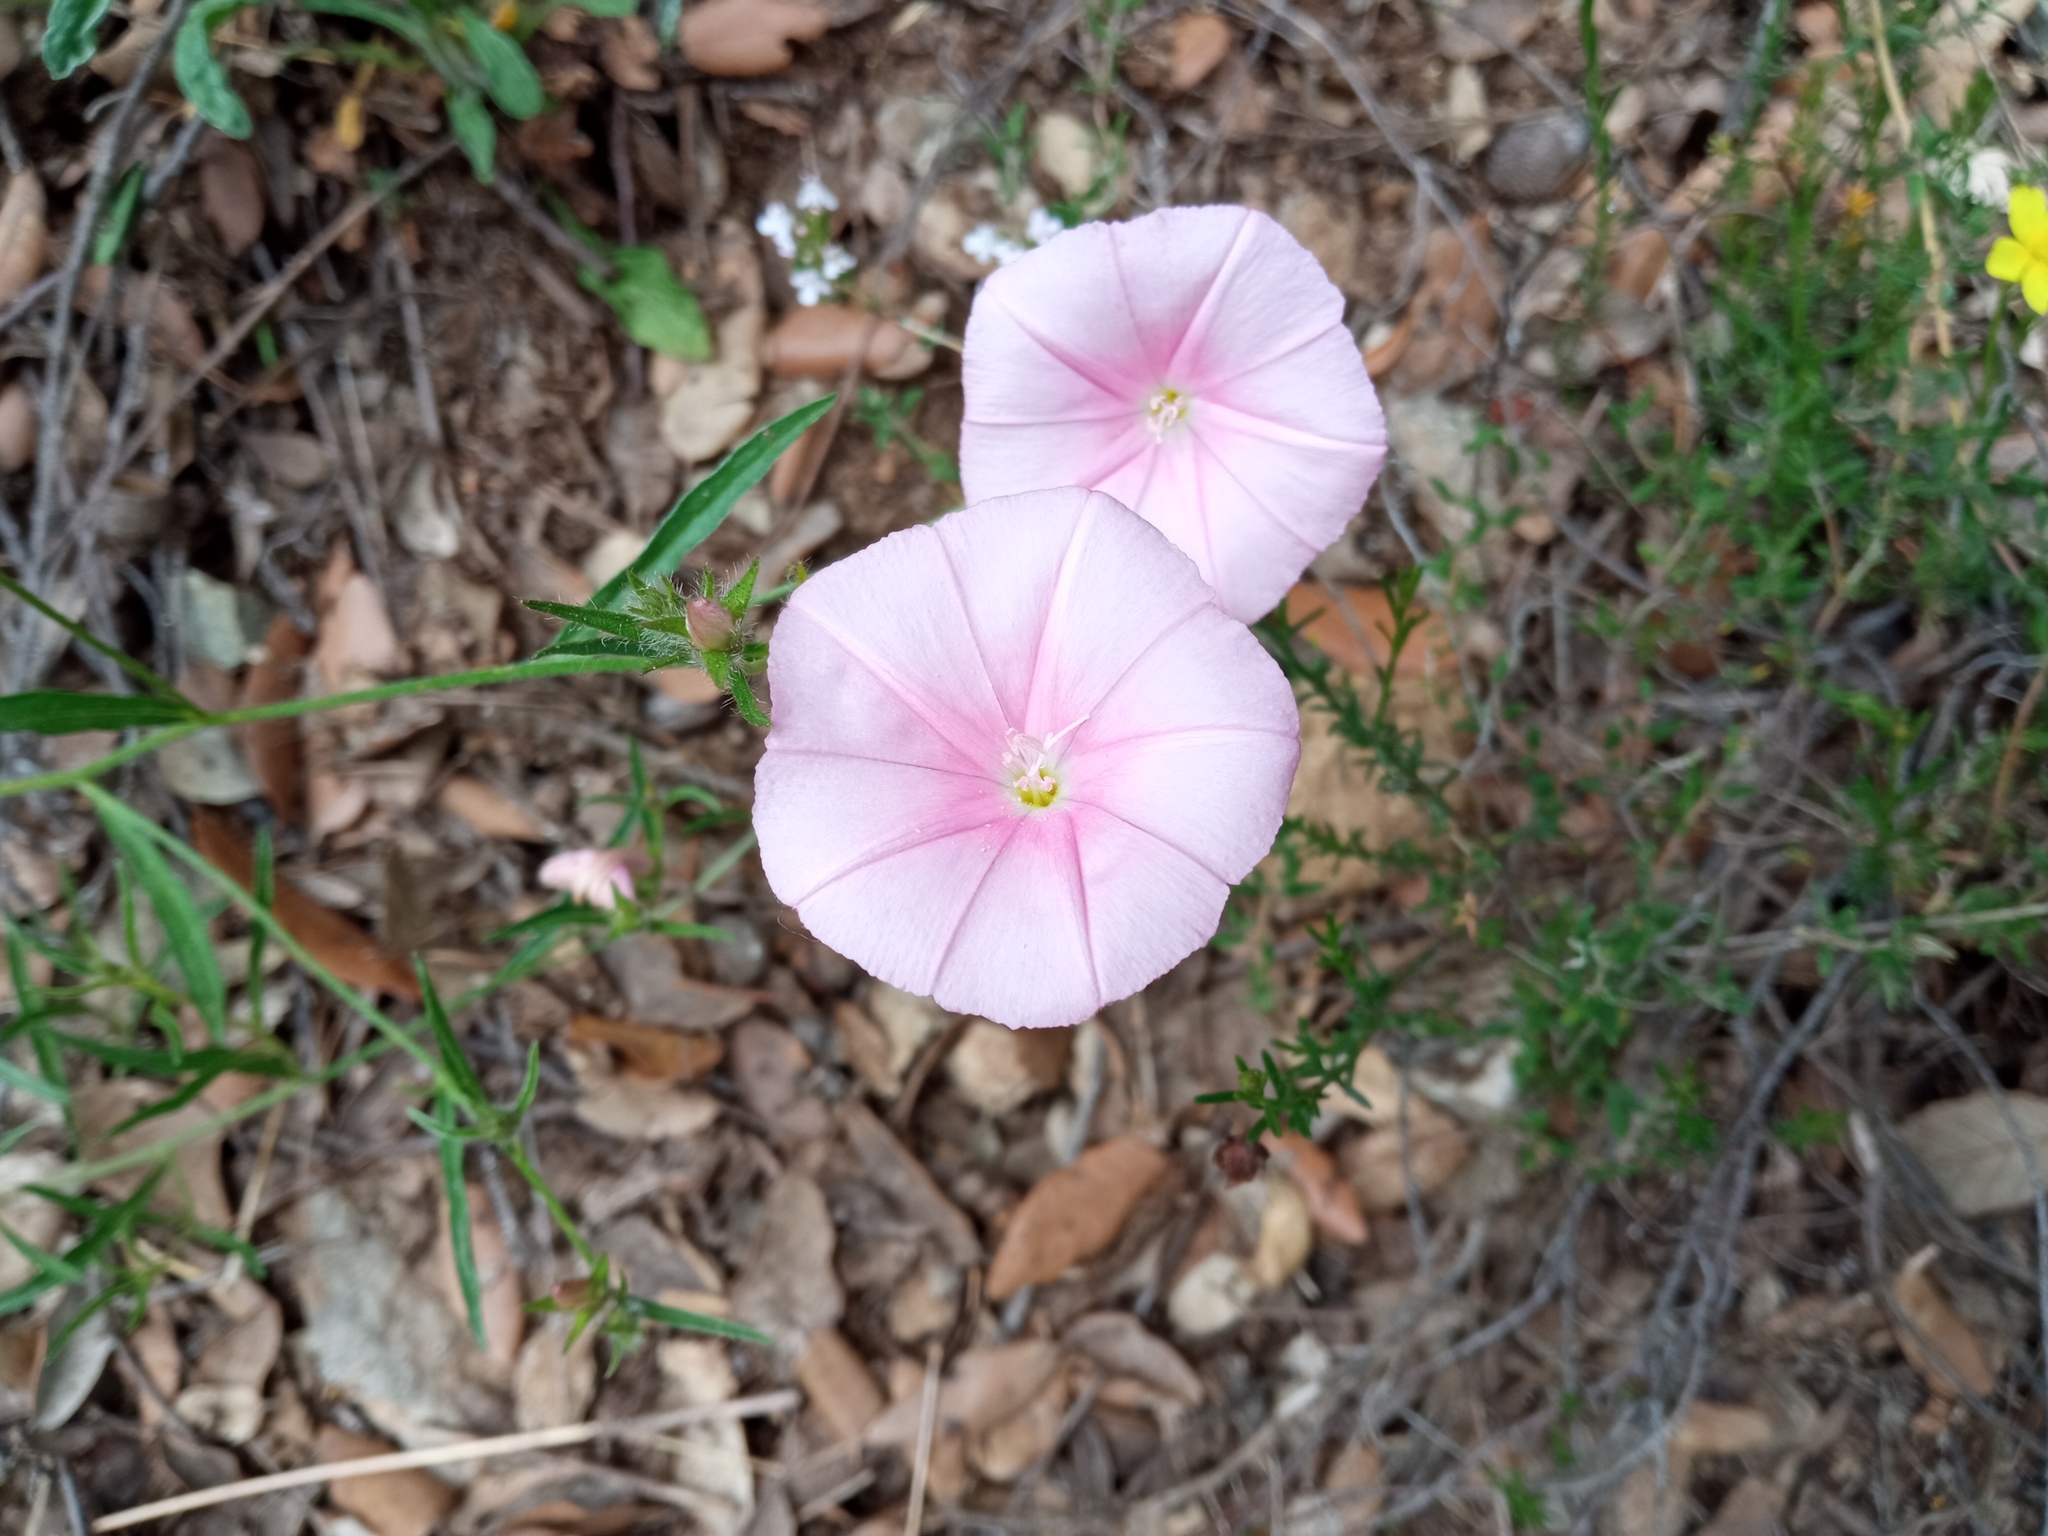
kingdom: Plantae
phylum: Tracheophyta
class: Magnoliopsida
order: Solanales
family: Convolvulaceae
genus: Convolvulus
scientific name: Convolvulus cantabrica
